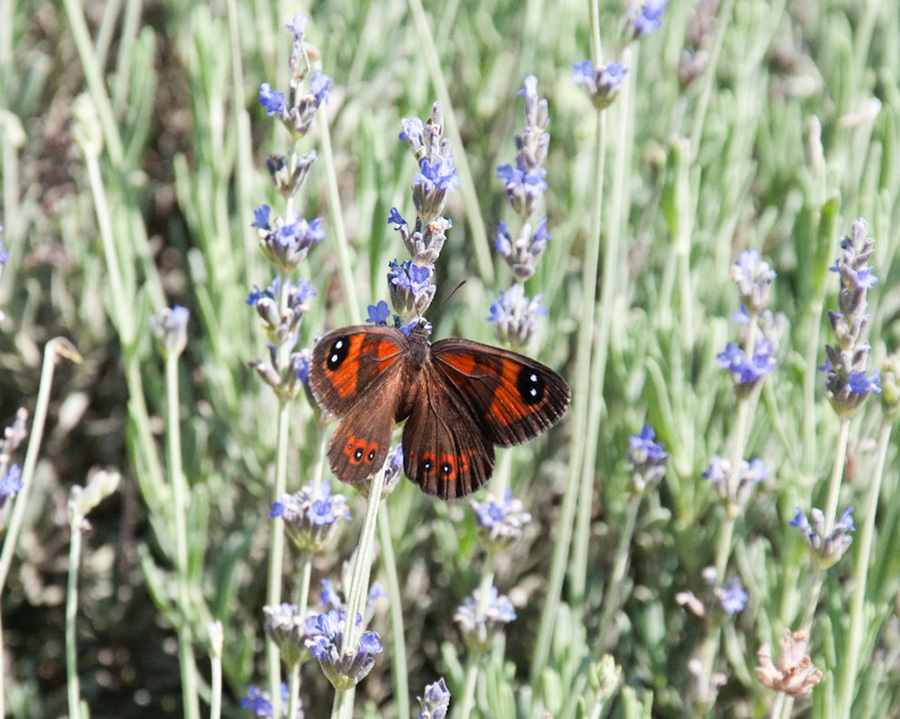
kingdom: Animalia
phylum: Arthropoda
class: Insecta
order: Lepidoptera
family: Nymphalidae
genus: Tarsocera
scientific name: Tarsocera namaquensis
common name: Namaqua widow
